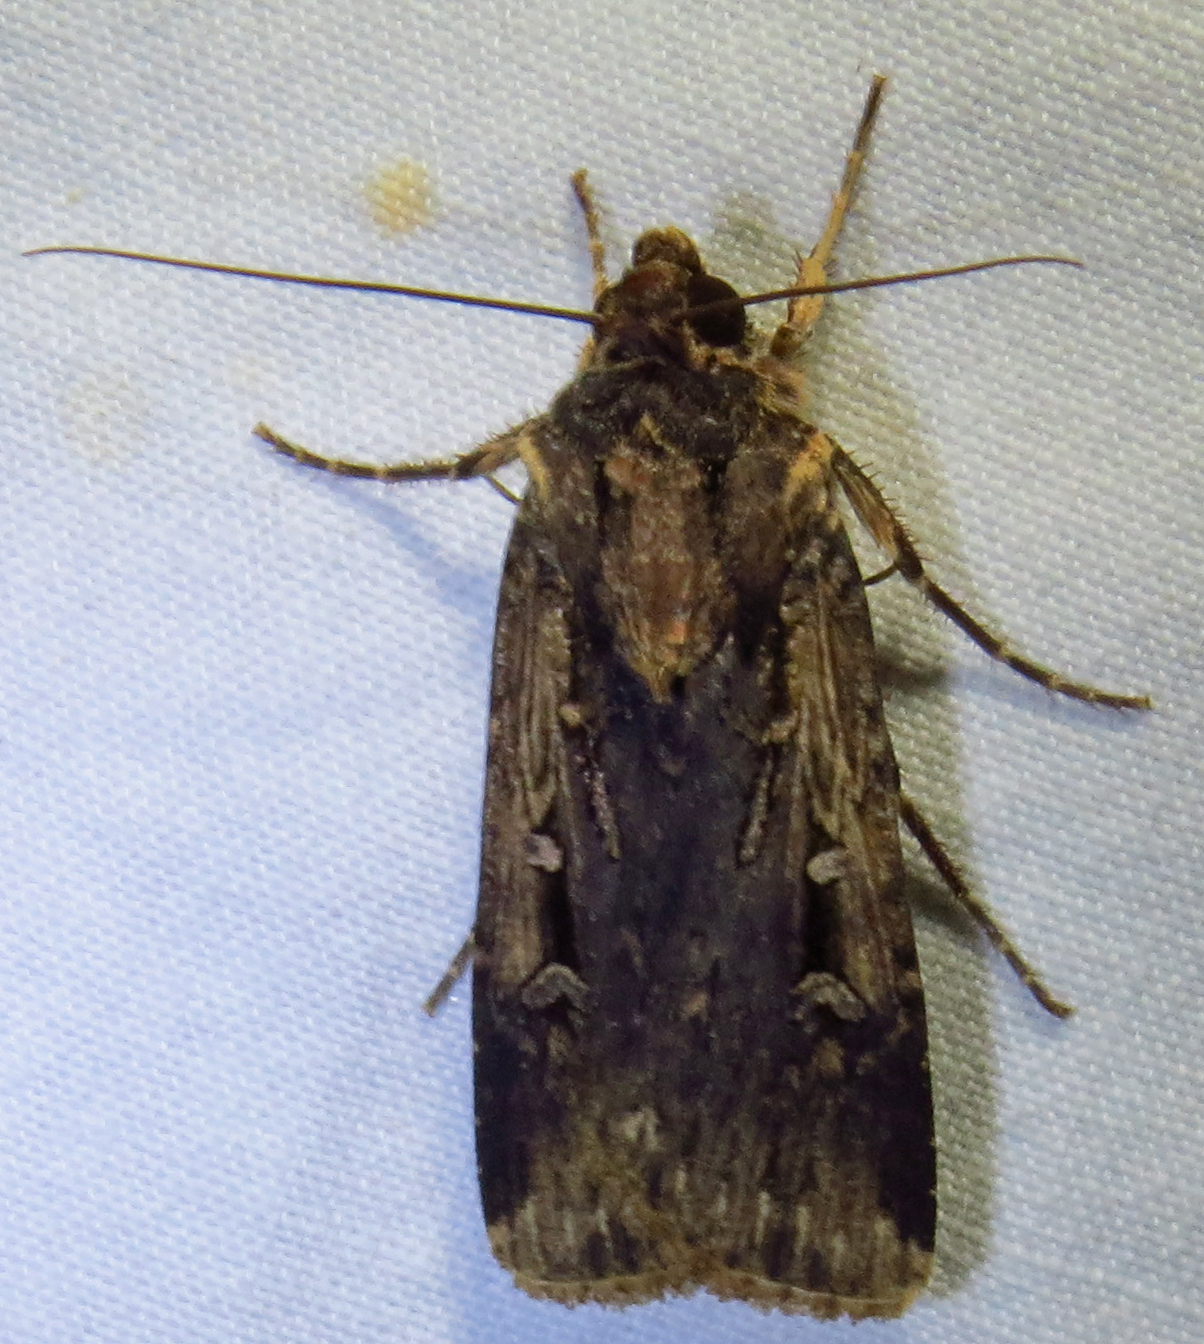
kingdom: Animalia
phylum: Arthropoda
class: Insecta
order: Lepidoptera
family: Noctuidae
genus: Feltia
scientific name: Feltia subterranea
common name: Granulate cutworm
